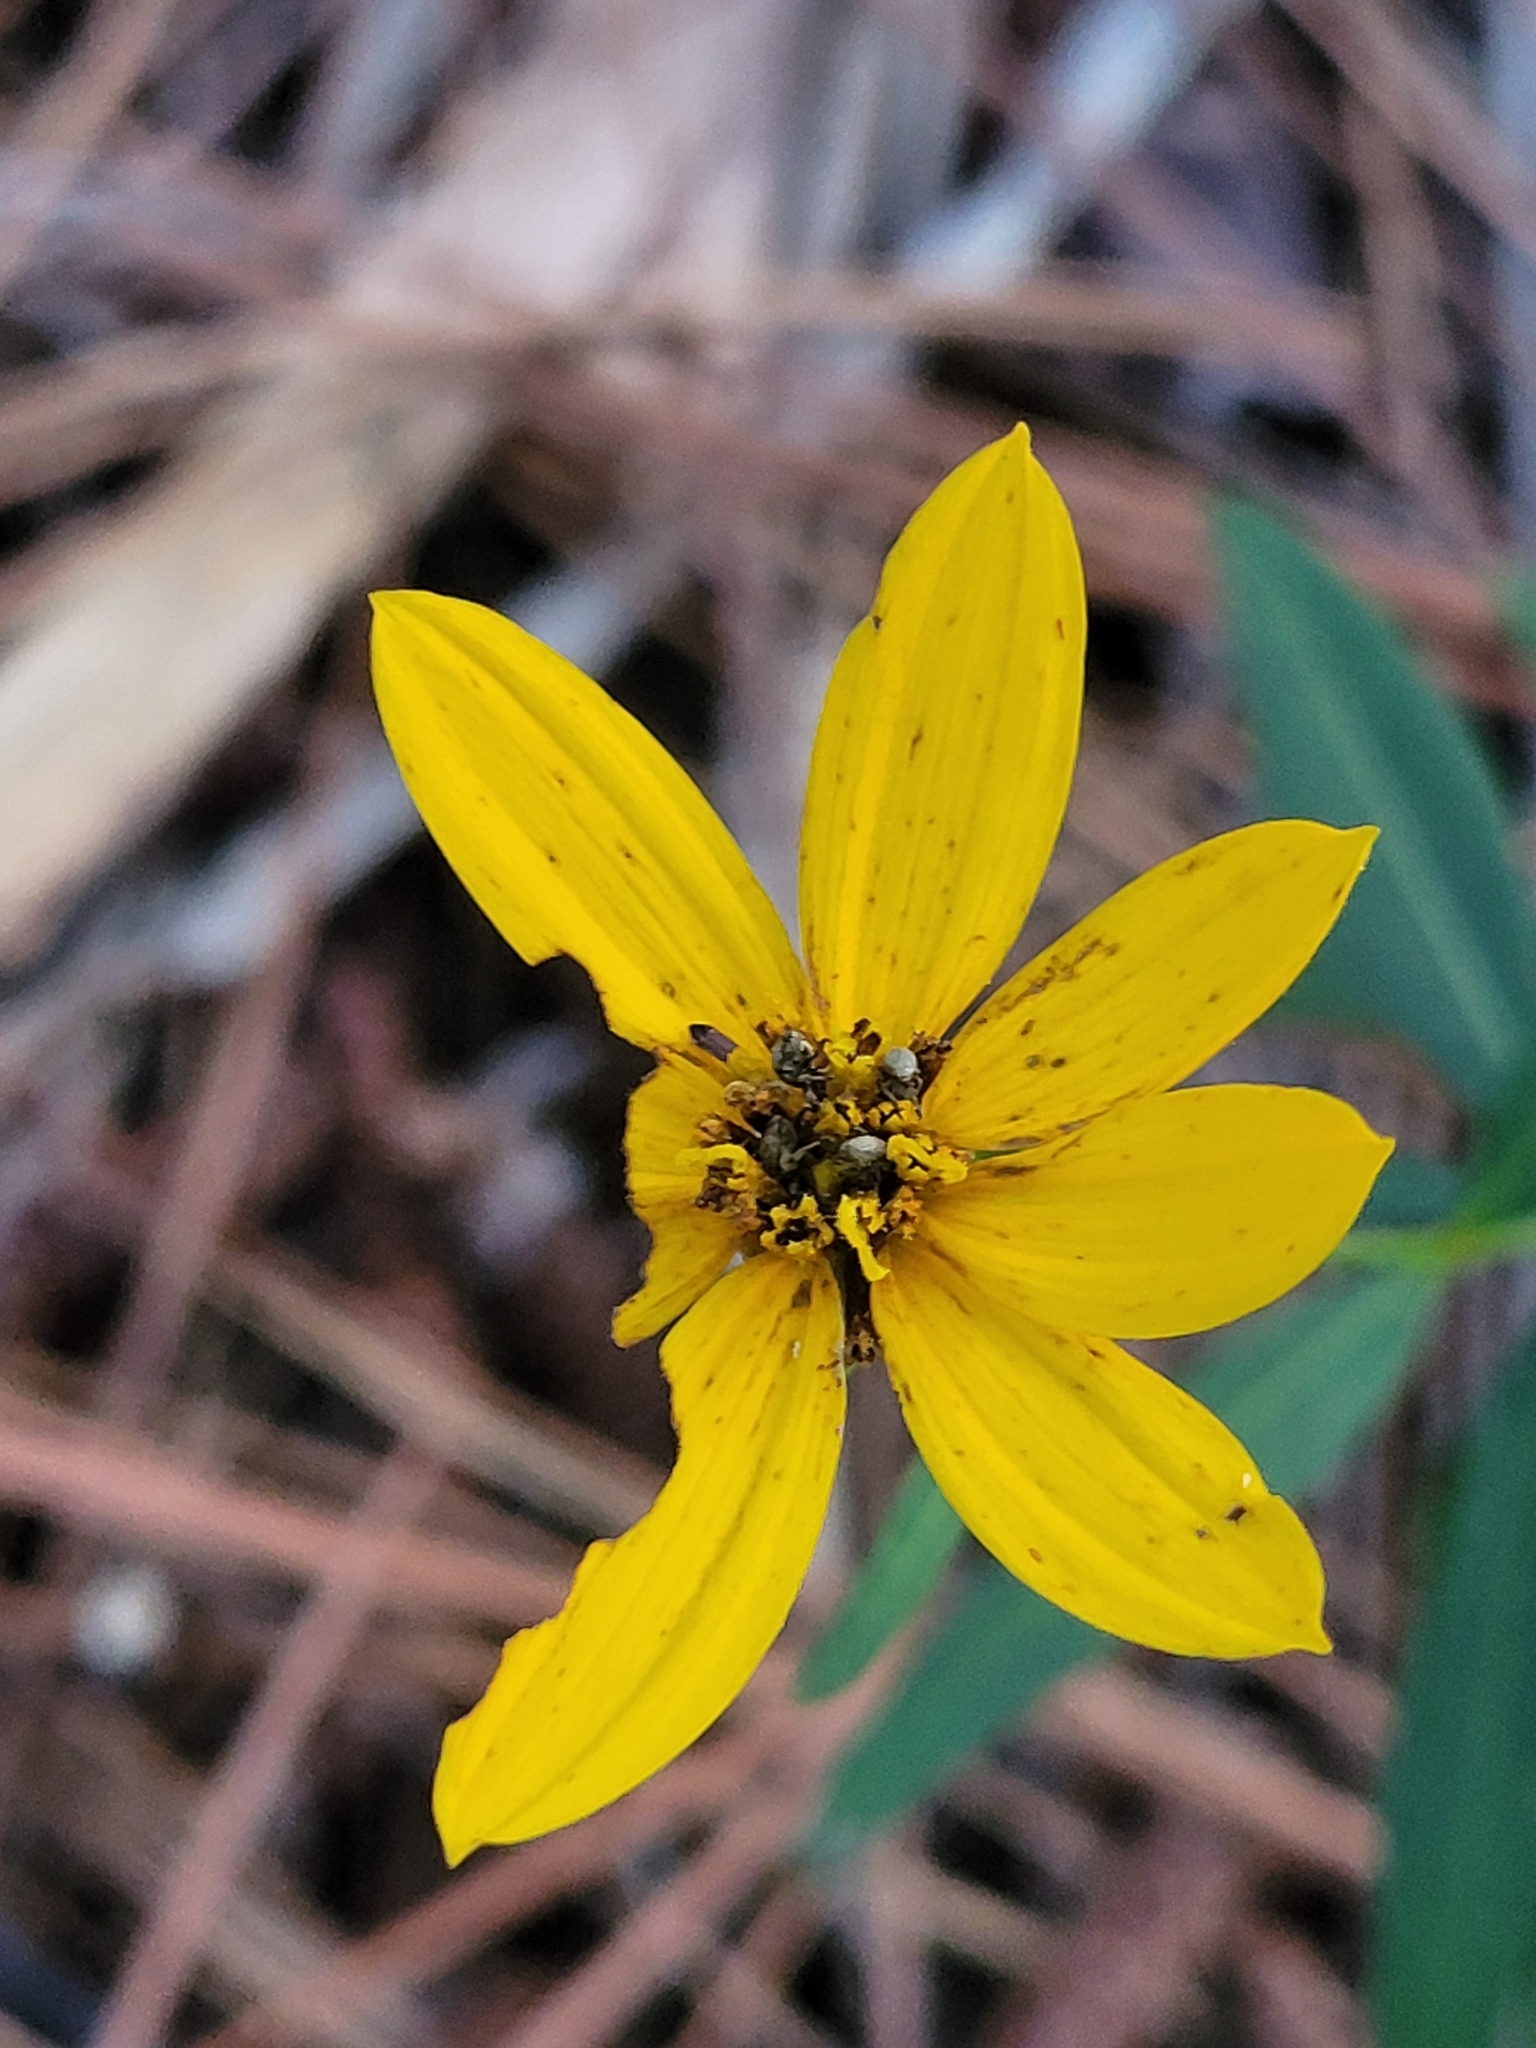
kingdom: Plantae
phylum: Tracheophyta
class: Magnoliopsida
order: Asterales
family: Asteraceae
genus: Coreopsis
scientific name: Coreopsis major
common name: Forest tickseed
